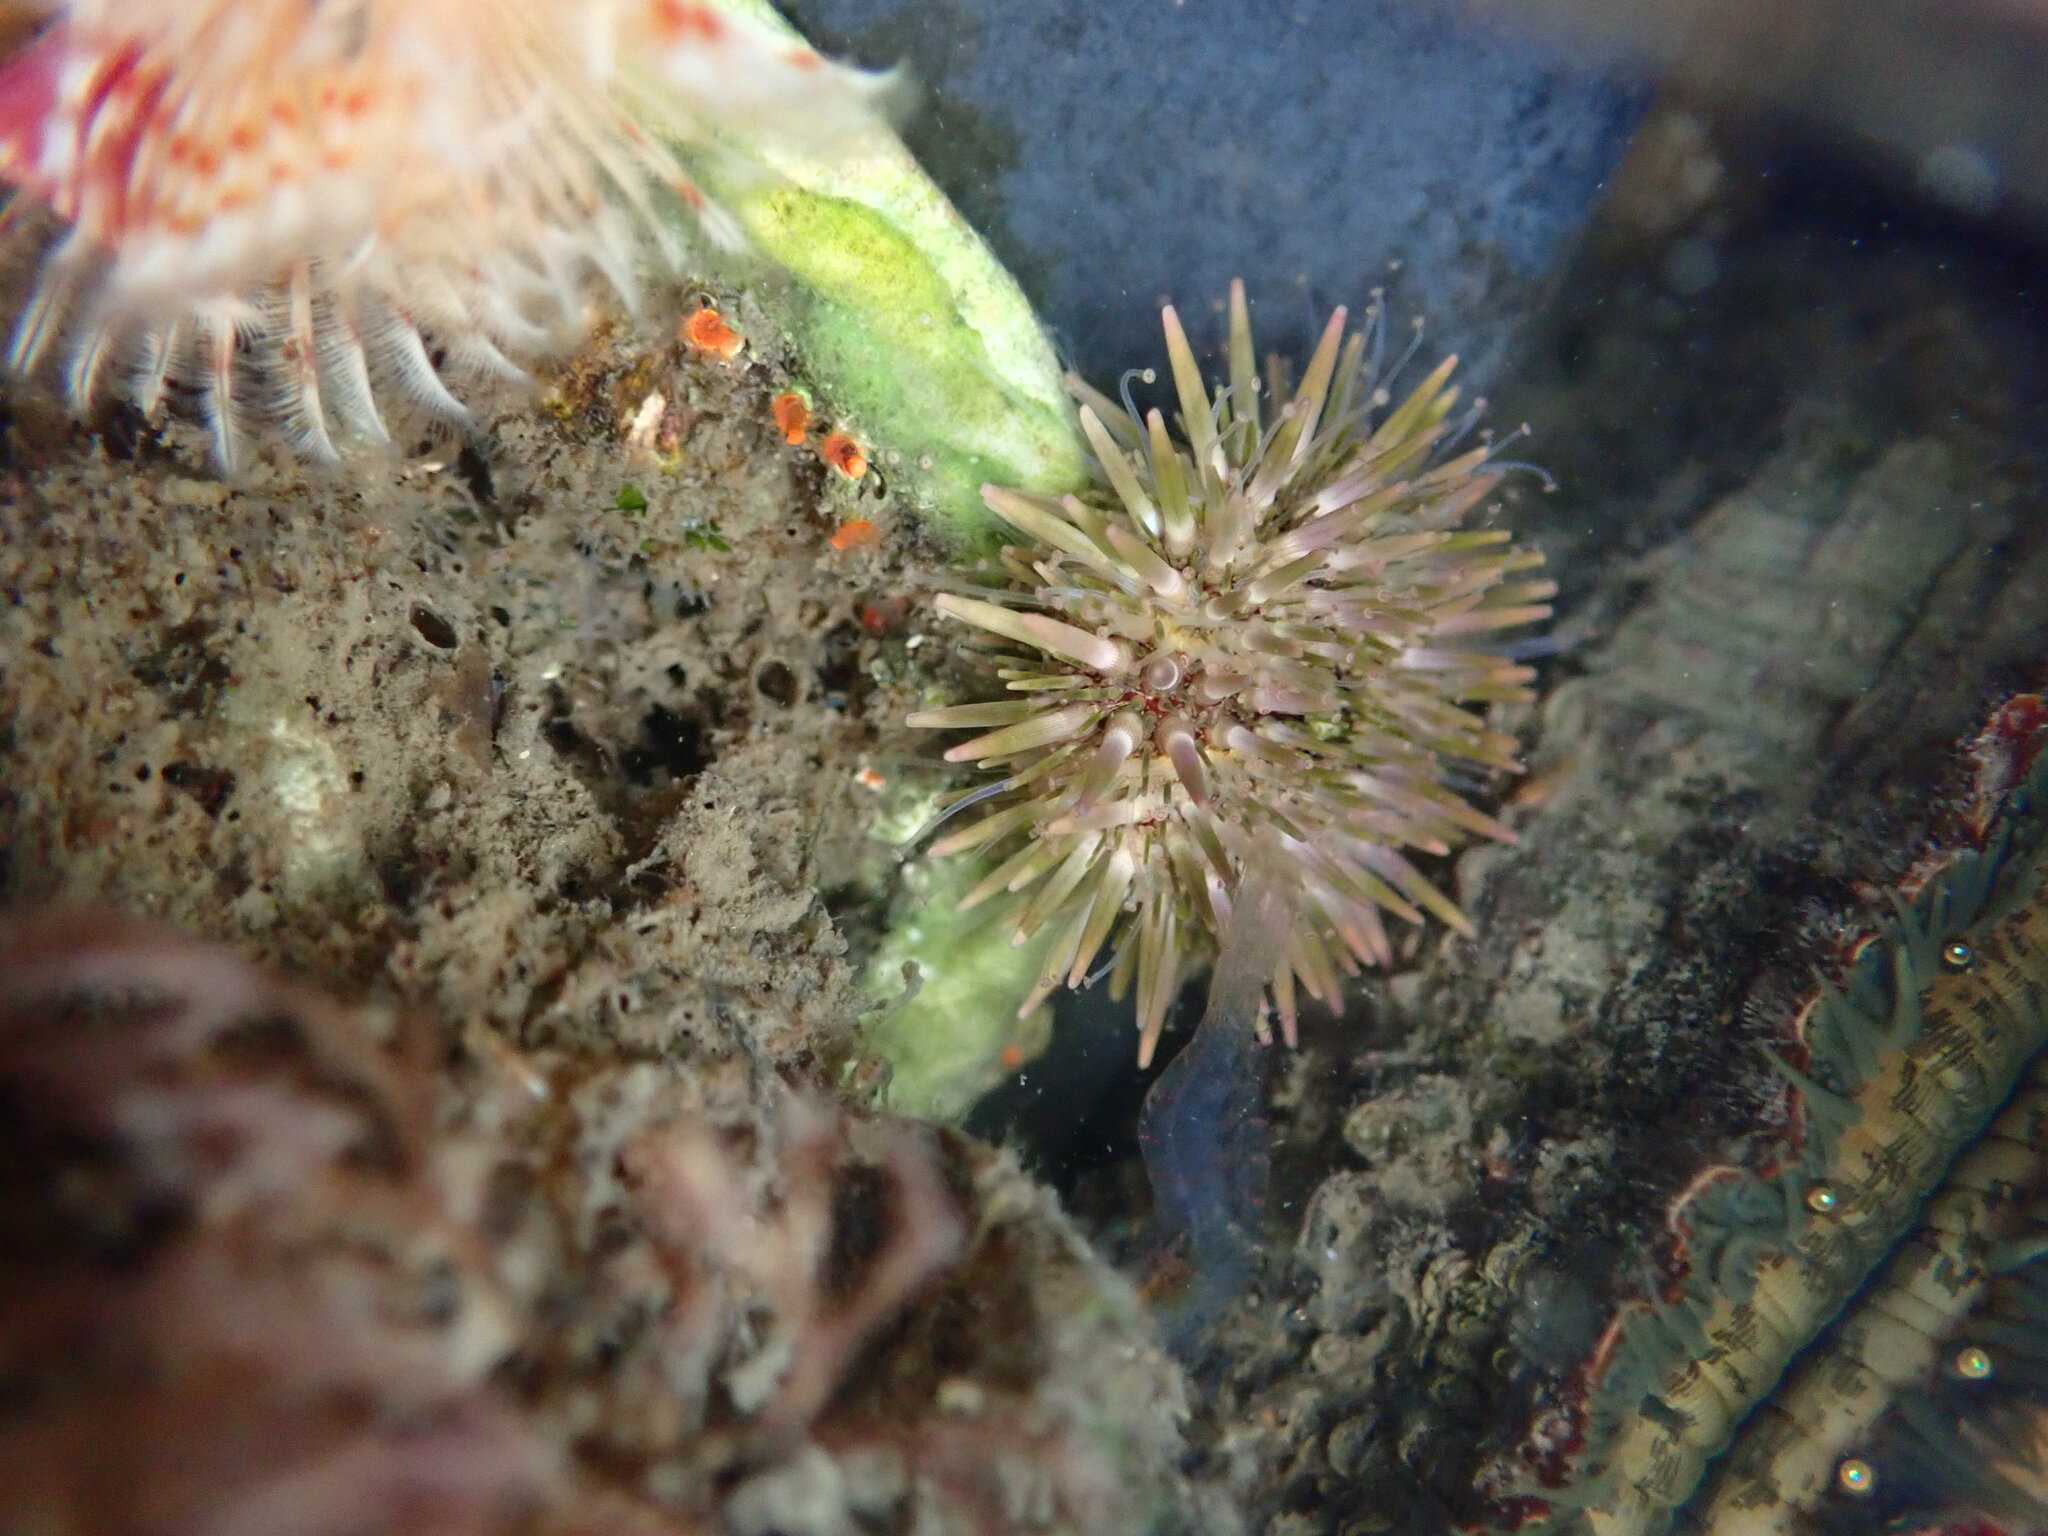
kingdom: Animalia
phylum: Echinodermata
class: Echinoidea
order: Camarodonta
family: Strongylocentrotidae
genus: Strongylocentrotus
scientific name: Strongylocentrotus purpuratus
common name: Purple sea urchin
